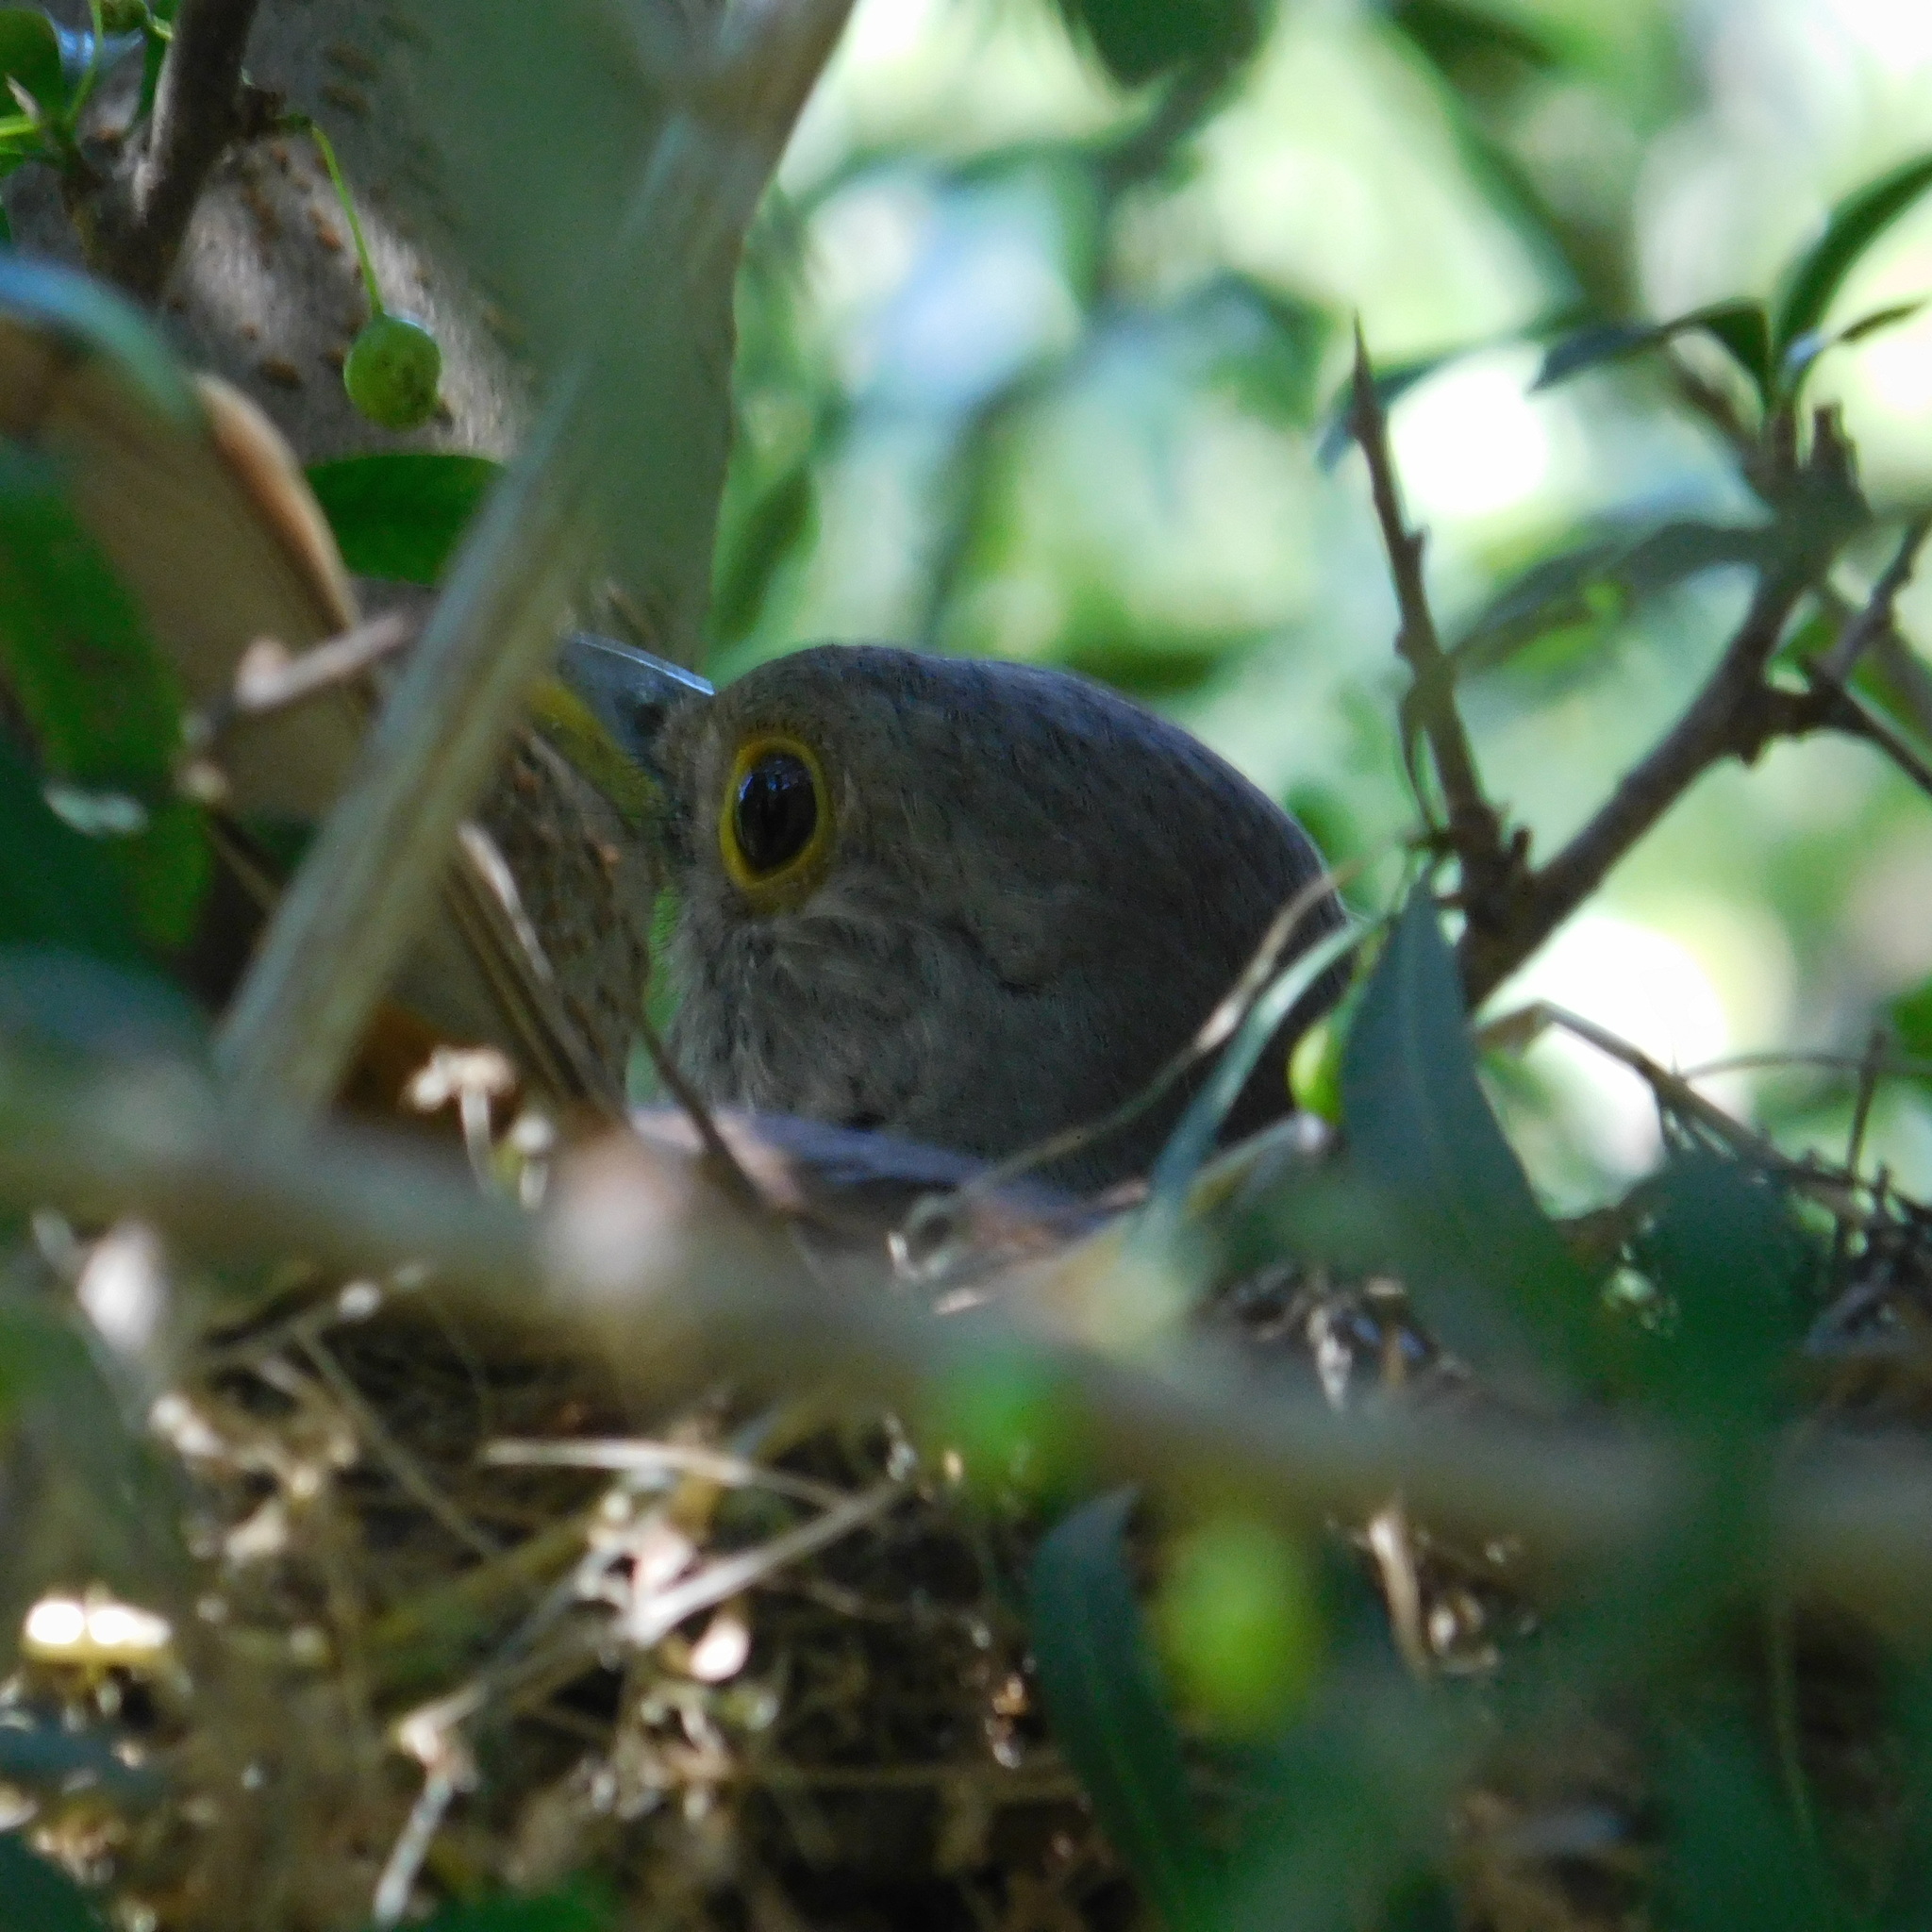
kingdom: Animalia
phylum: Chordata
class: Aves
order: Passeriformes
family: Turdidae
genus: Turdus
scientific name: Turdus rufiventris
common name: Rufous-bellied thrush
